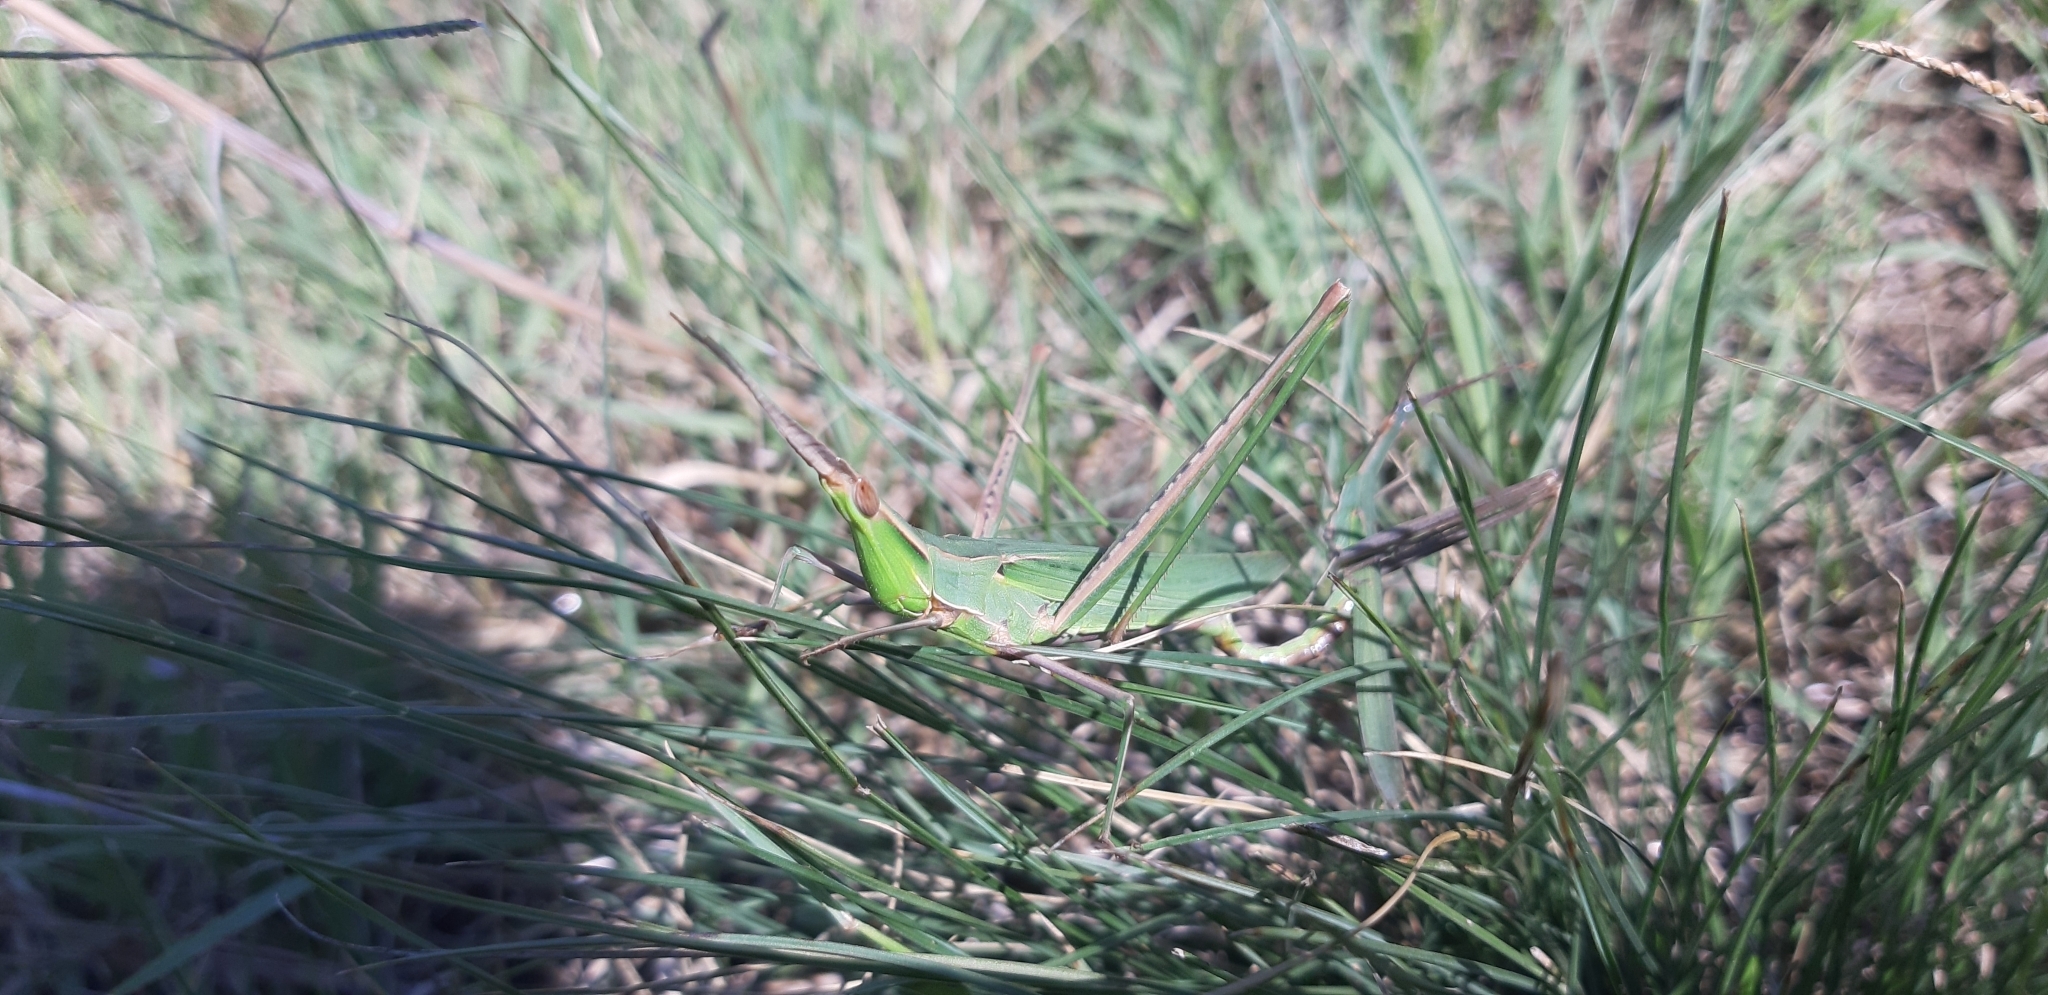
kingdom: Animalia
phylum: Arthropoda
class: Insecta
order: Orthoptera
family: Acrididae
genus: Acrida
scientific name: Acrida ungarica
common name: Common cone-headed grasshopper
